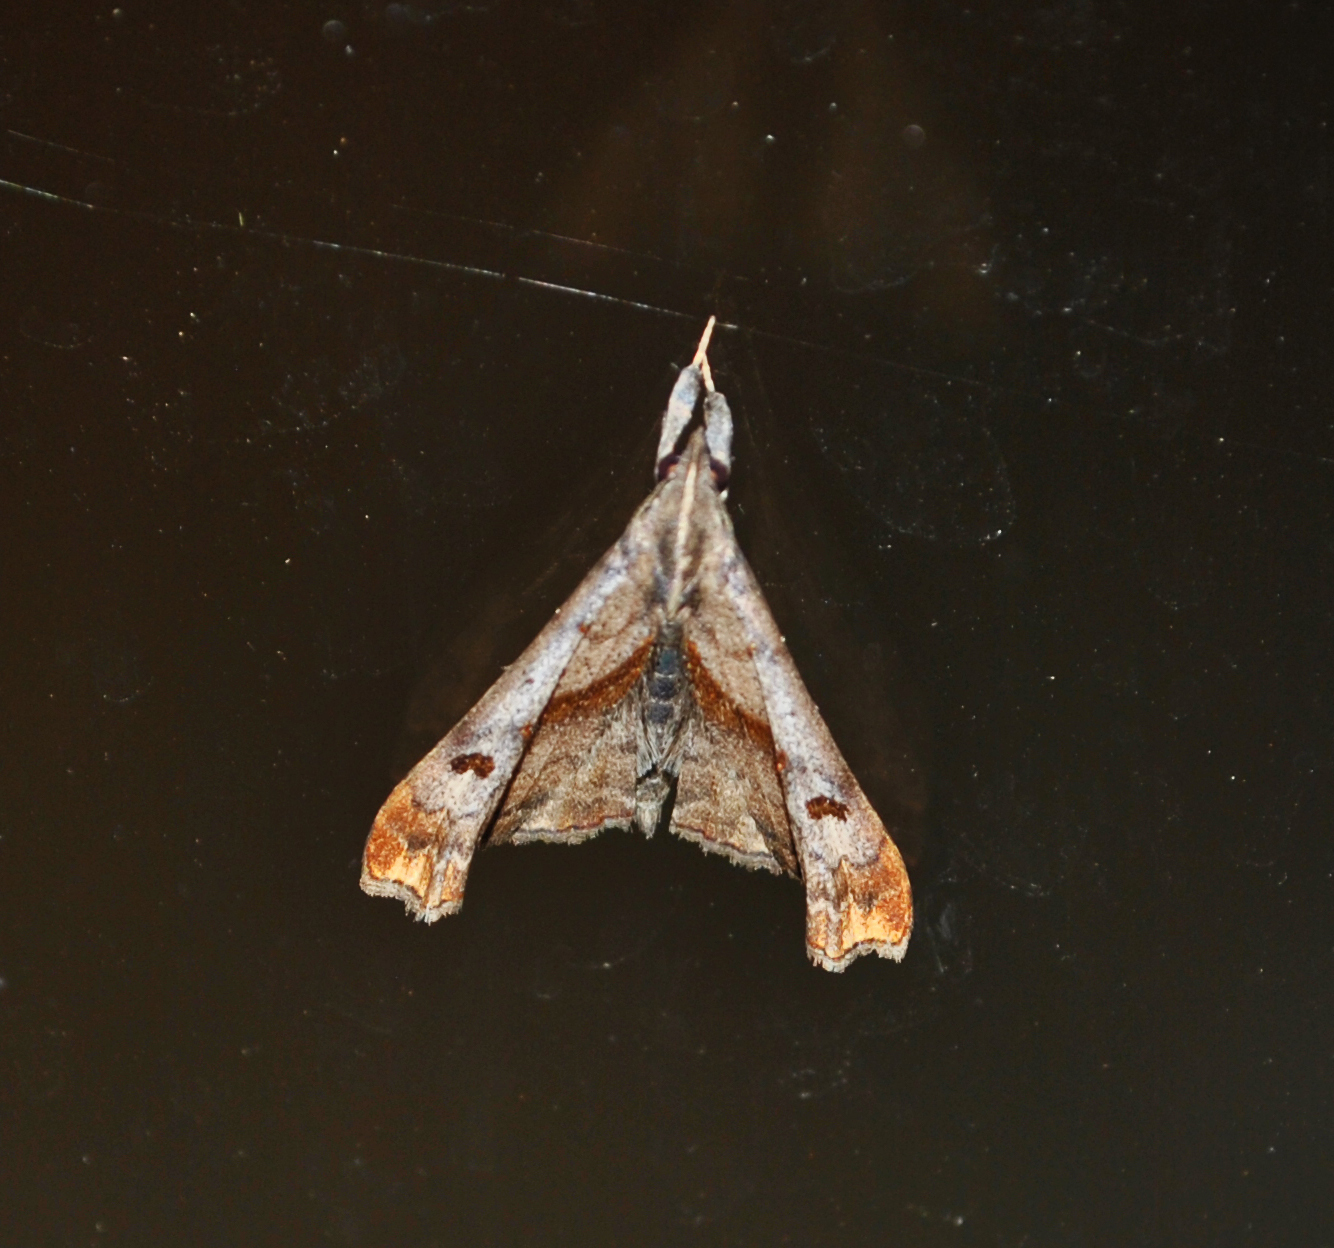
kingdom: Animalia
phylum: Arthropoda
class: Insecta
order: Lepidoptera
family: Erebidae
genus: Palthis
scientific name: Palthis angulalis
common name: Dark-spotted palthis moth
